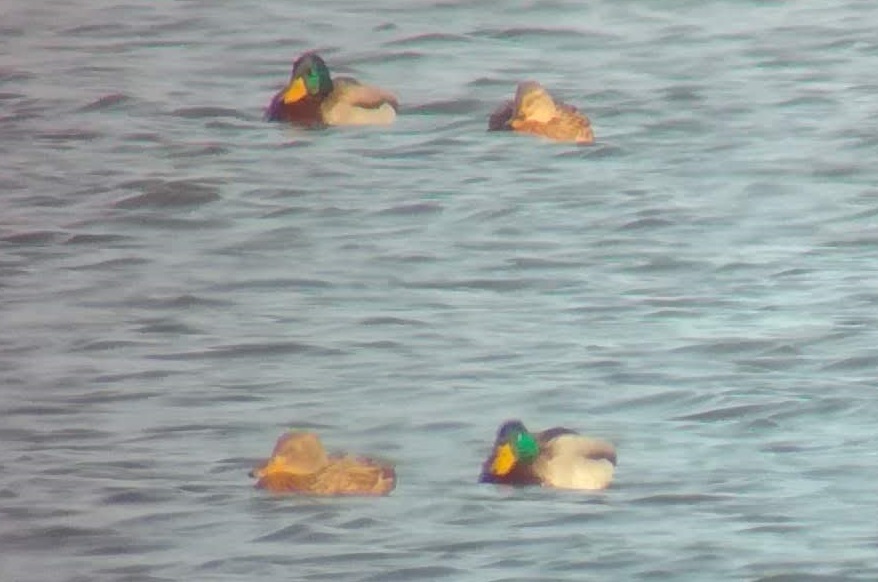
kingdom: Animalia
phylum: Chordata
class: Aves
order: Anseriformes
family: Anatidae
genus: Anas
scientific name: Anas platyrhynchos
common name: Mallard
